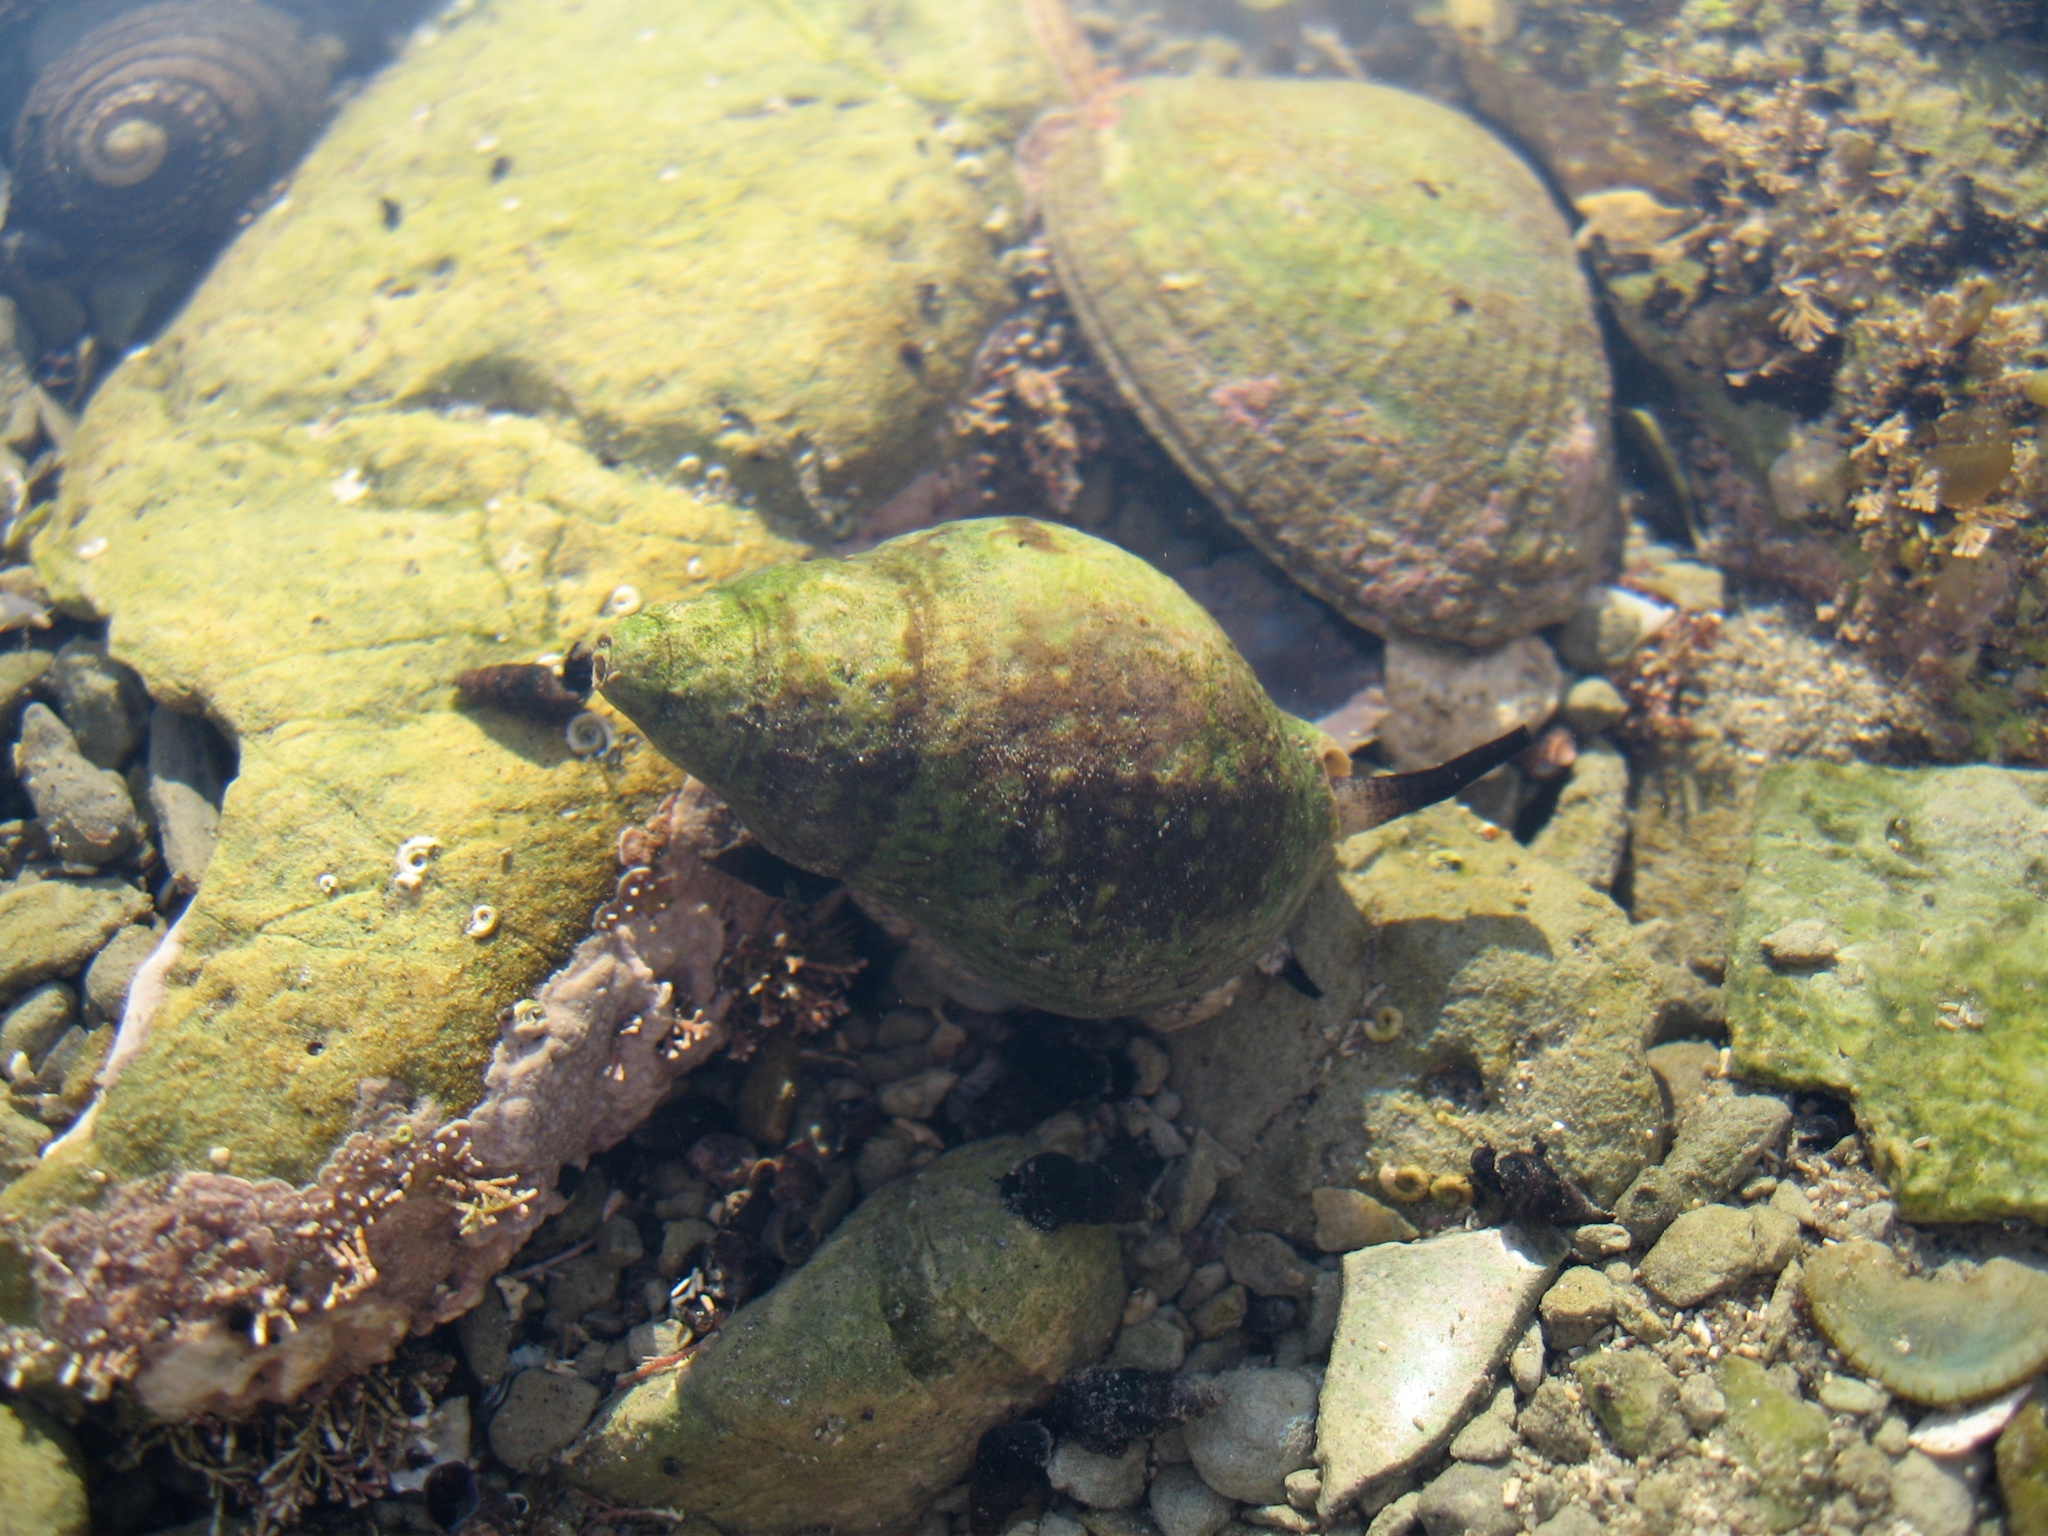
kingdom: Animalia
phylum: Mollusca
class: Gastropoda
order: Neogastropoda
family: Cominellidae
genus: Cominella
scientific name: Cominella maculosa
